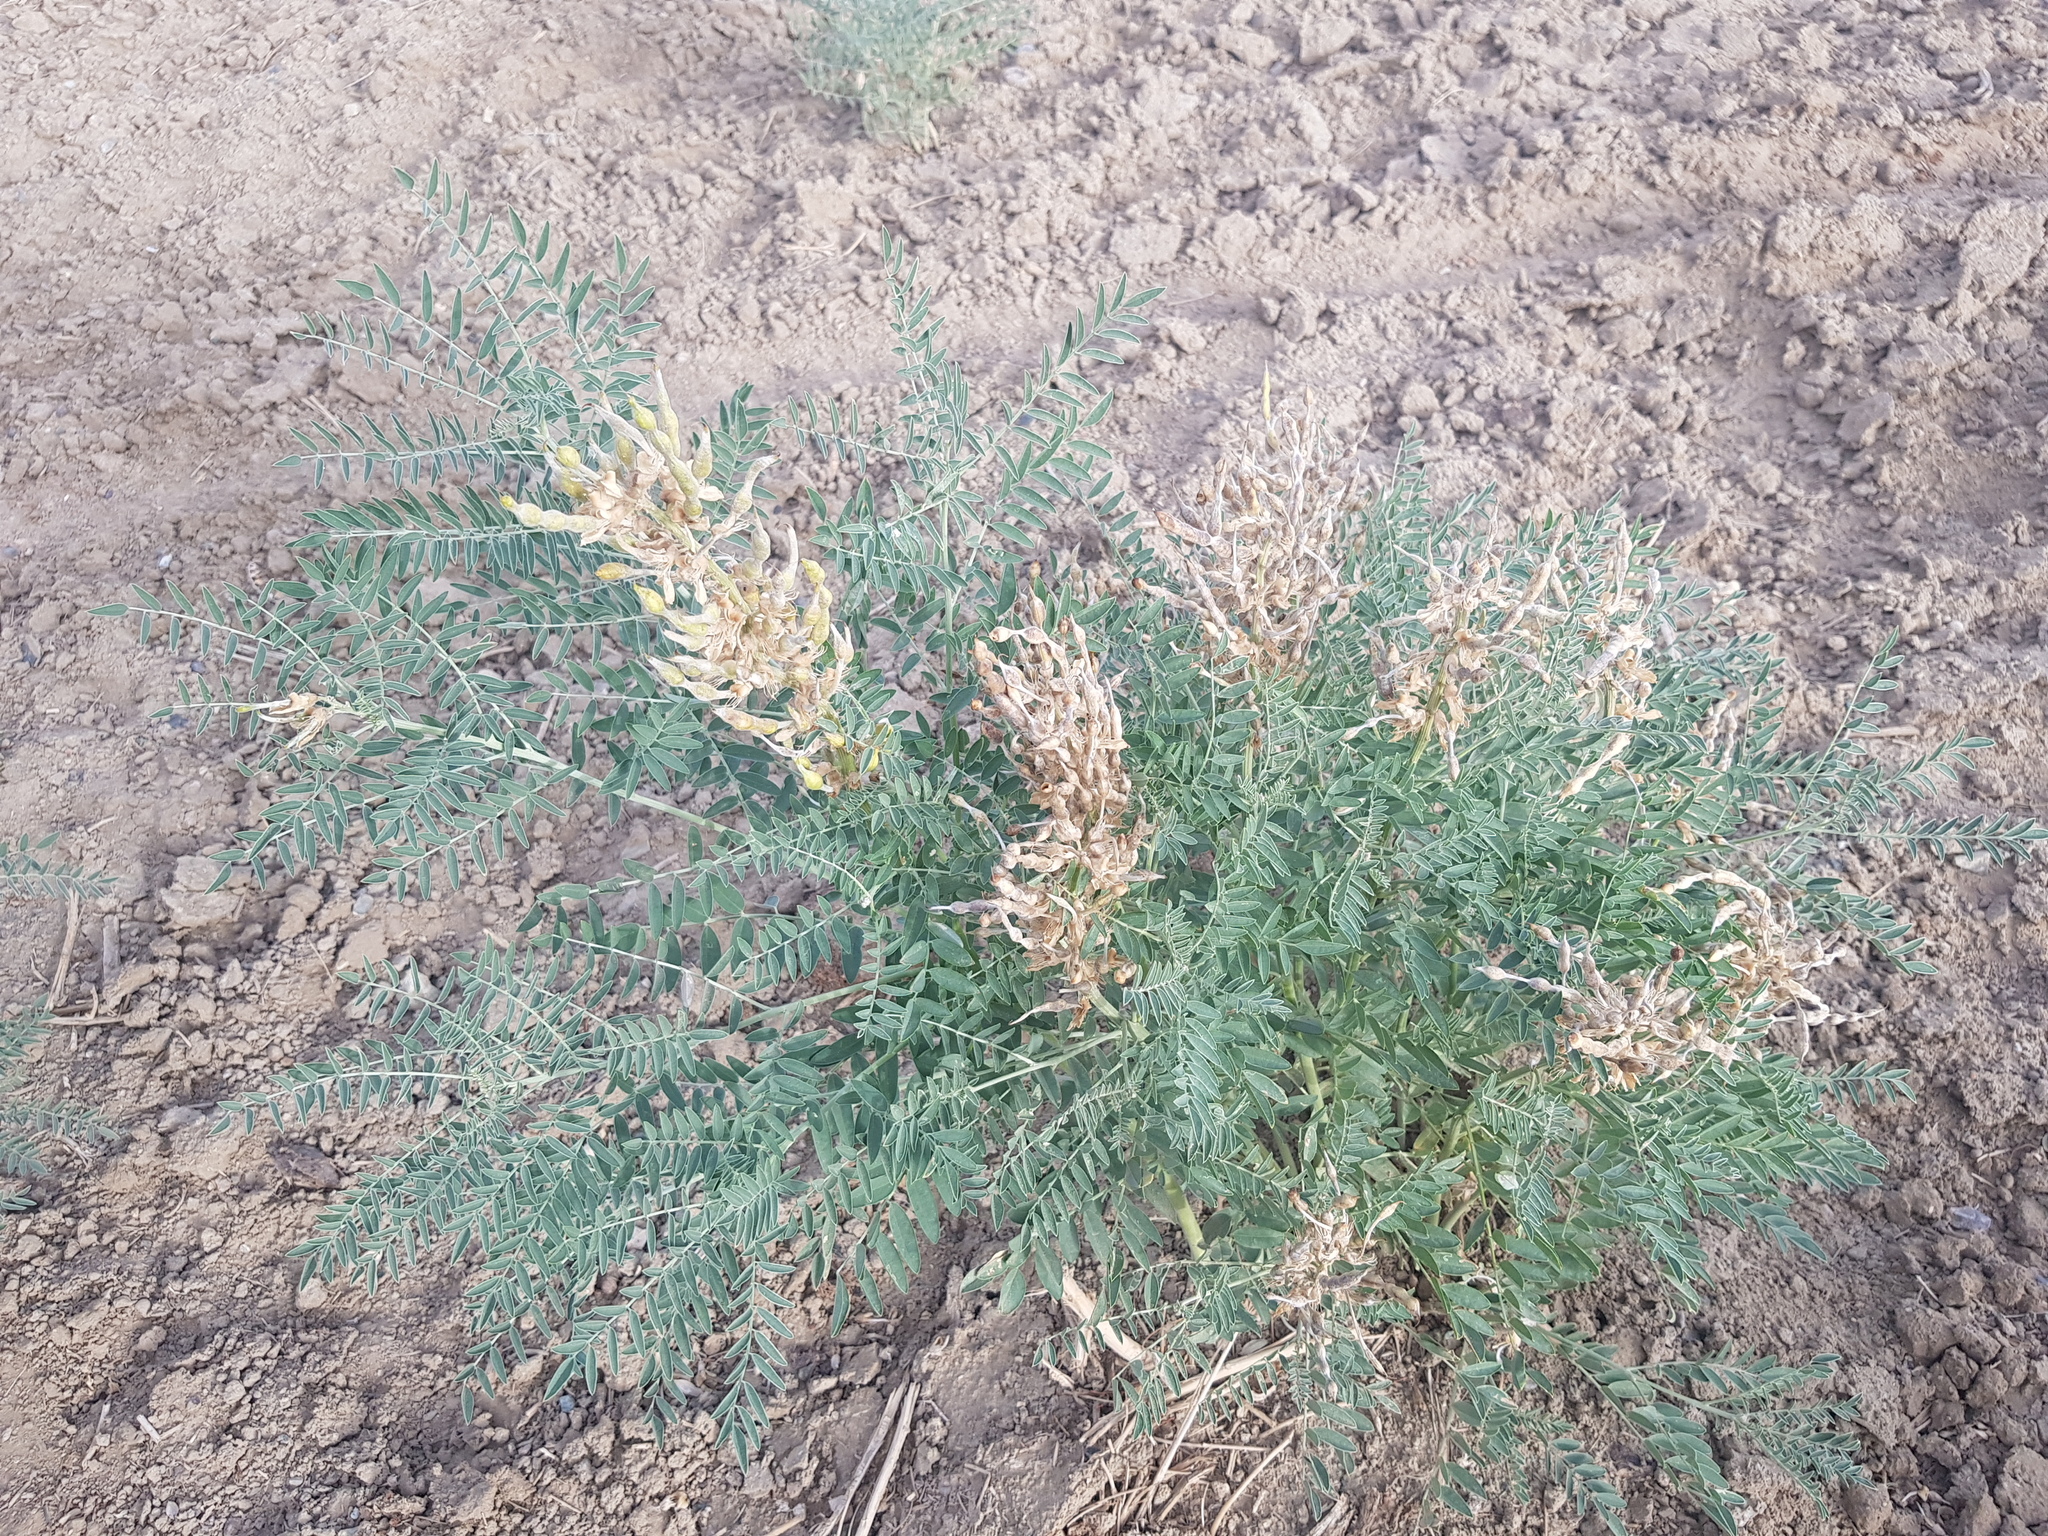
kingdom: Plantae
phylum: Tracheophyta
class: Magnoliopsida
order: Fabales
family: Fabaceae
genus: Sophora
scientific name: Sophora alopecuroides
